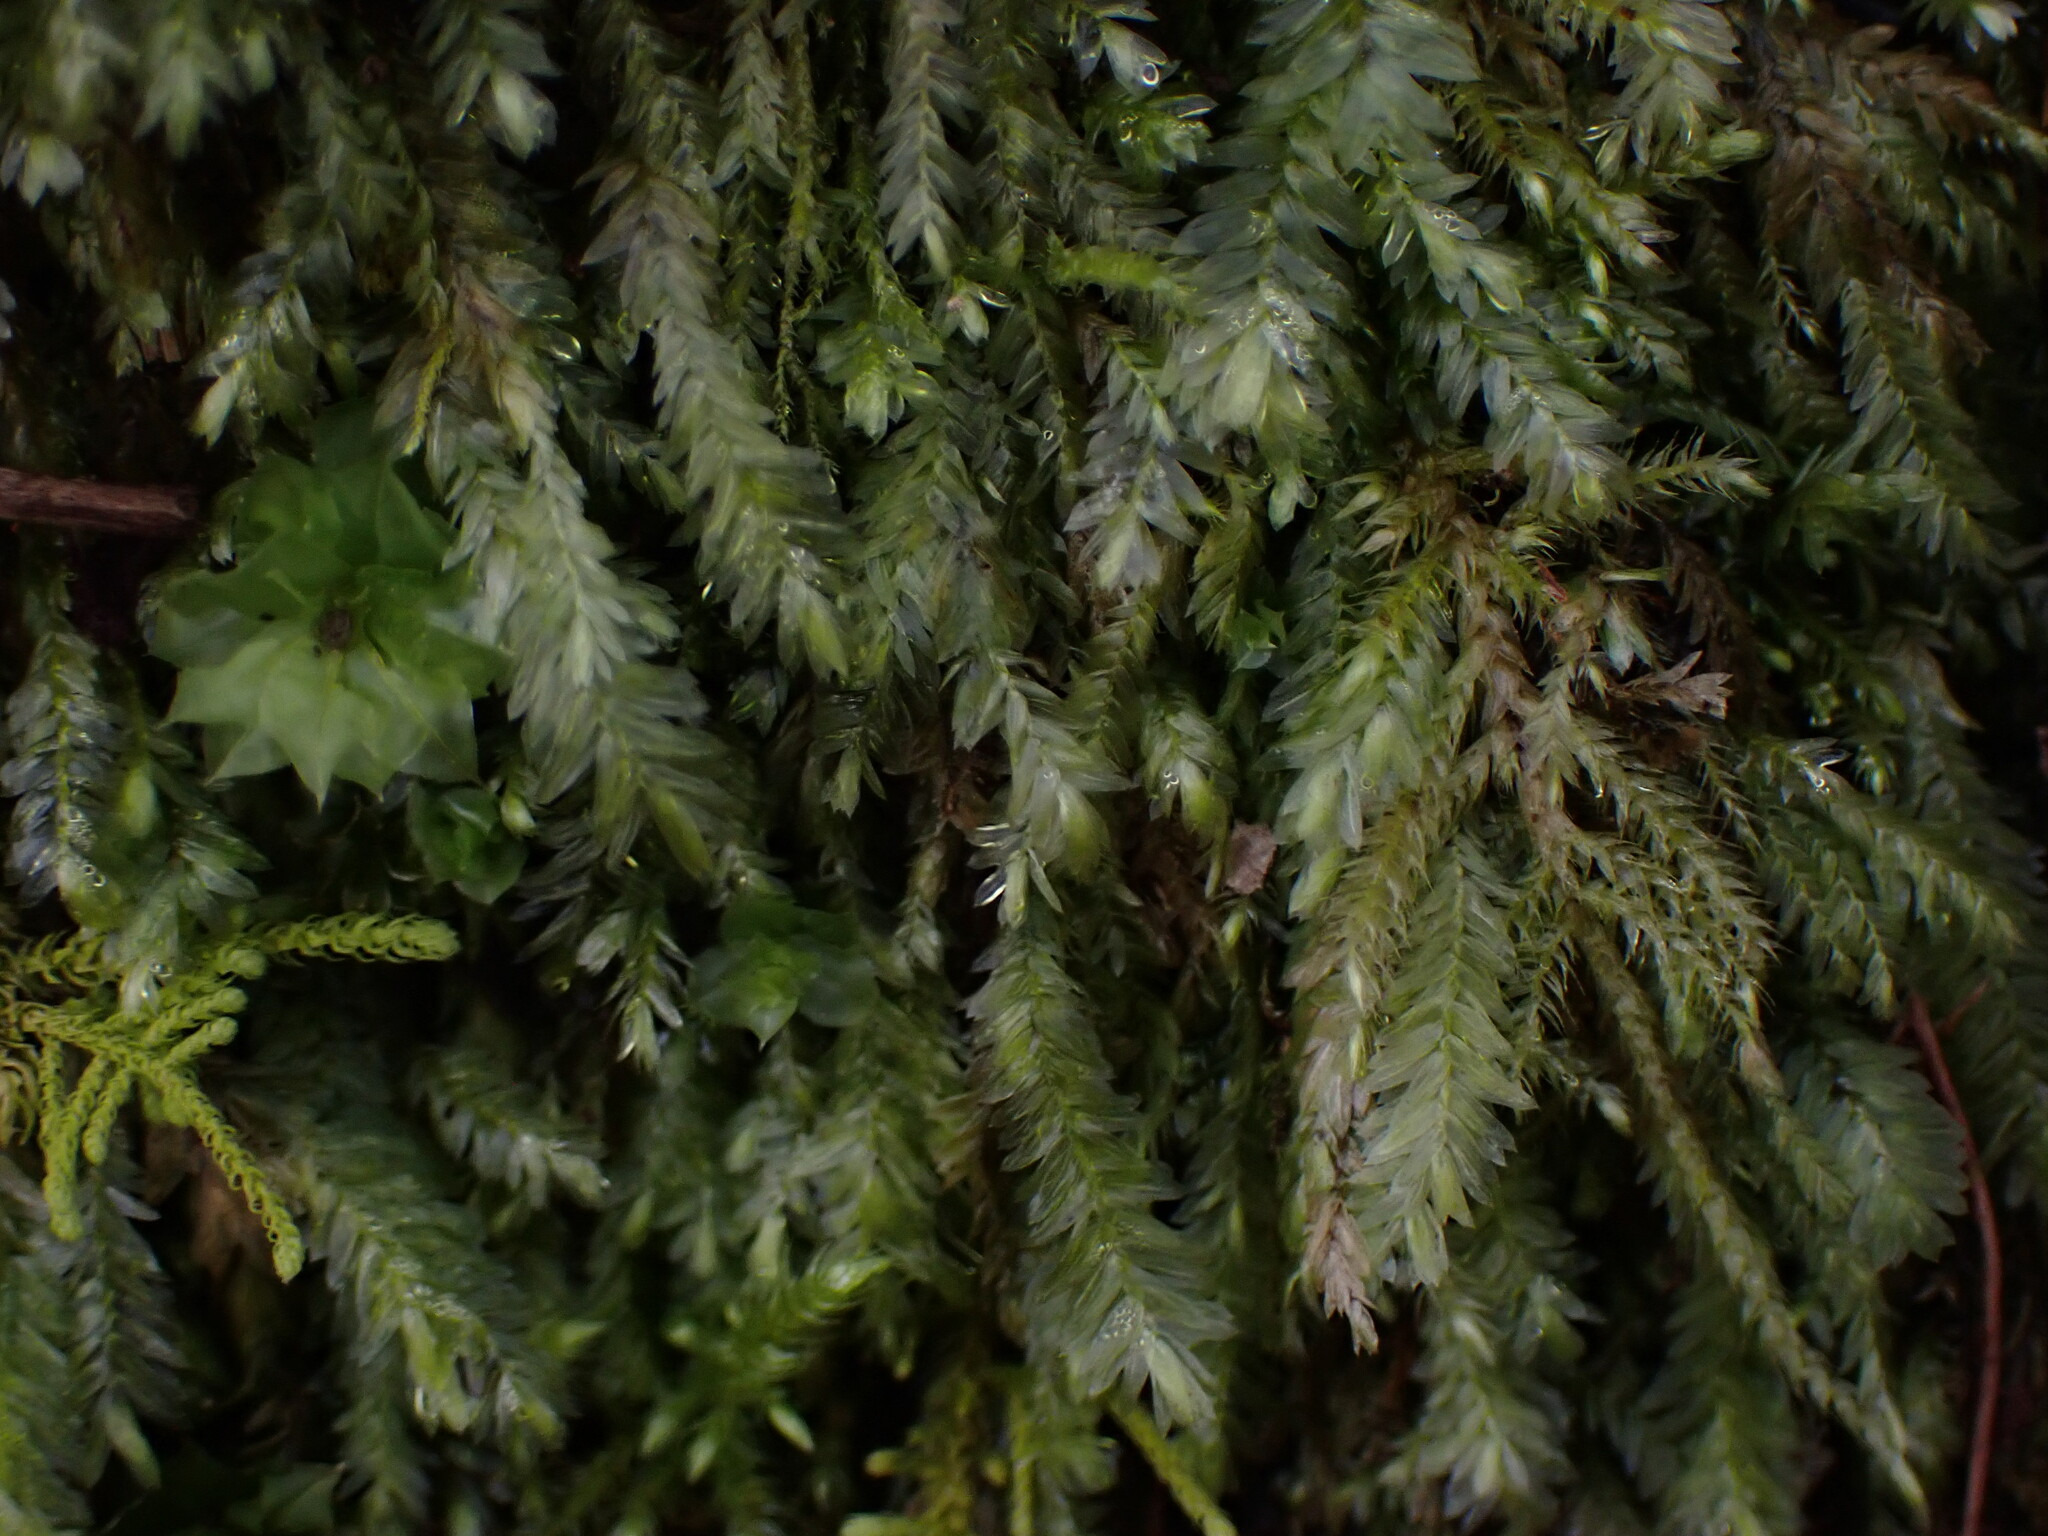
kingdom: Plantae
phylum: Bryophyta
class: Bryopsida
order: Hypnales
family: Neckeraceae
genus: Dannorrisia
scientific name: Dannorrisia bigelovii
